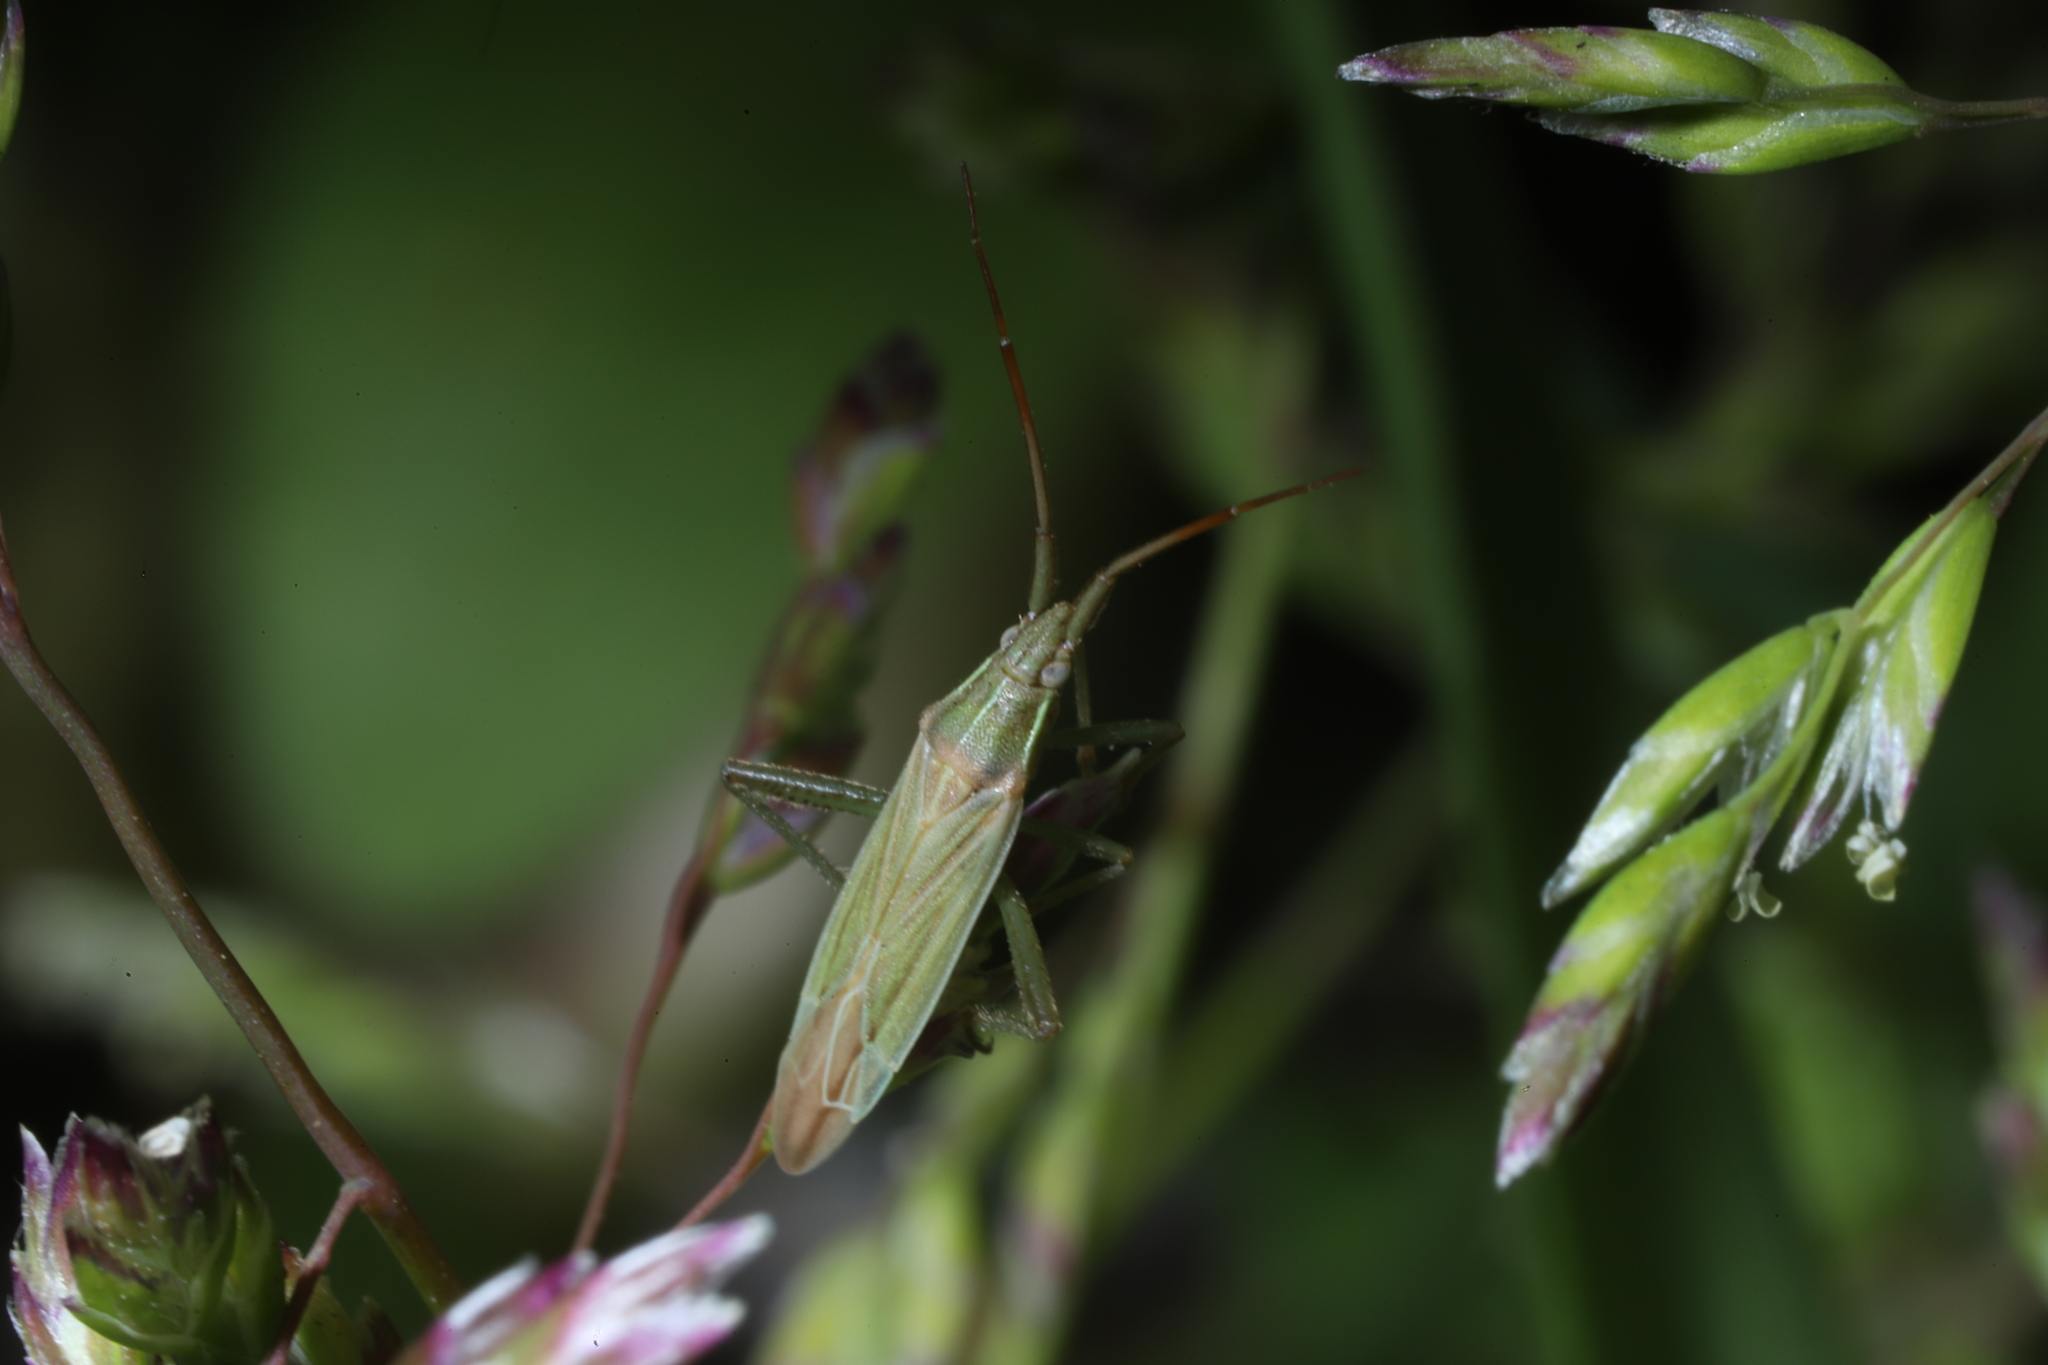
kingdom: Animalia
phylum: Arthropoda
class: Insecta
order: Hemiptera
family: Miridae
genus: Stenodema
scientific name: Stenodema trispinosa
